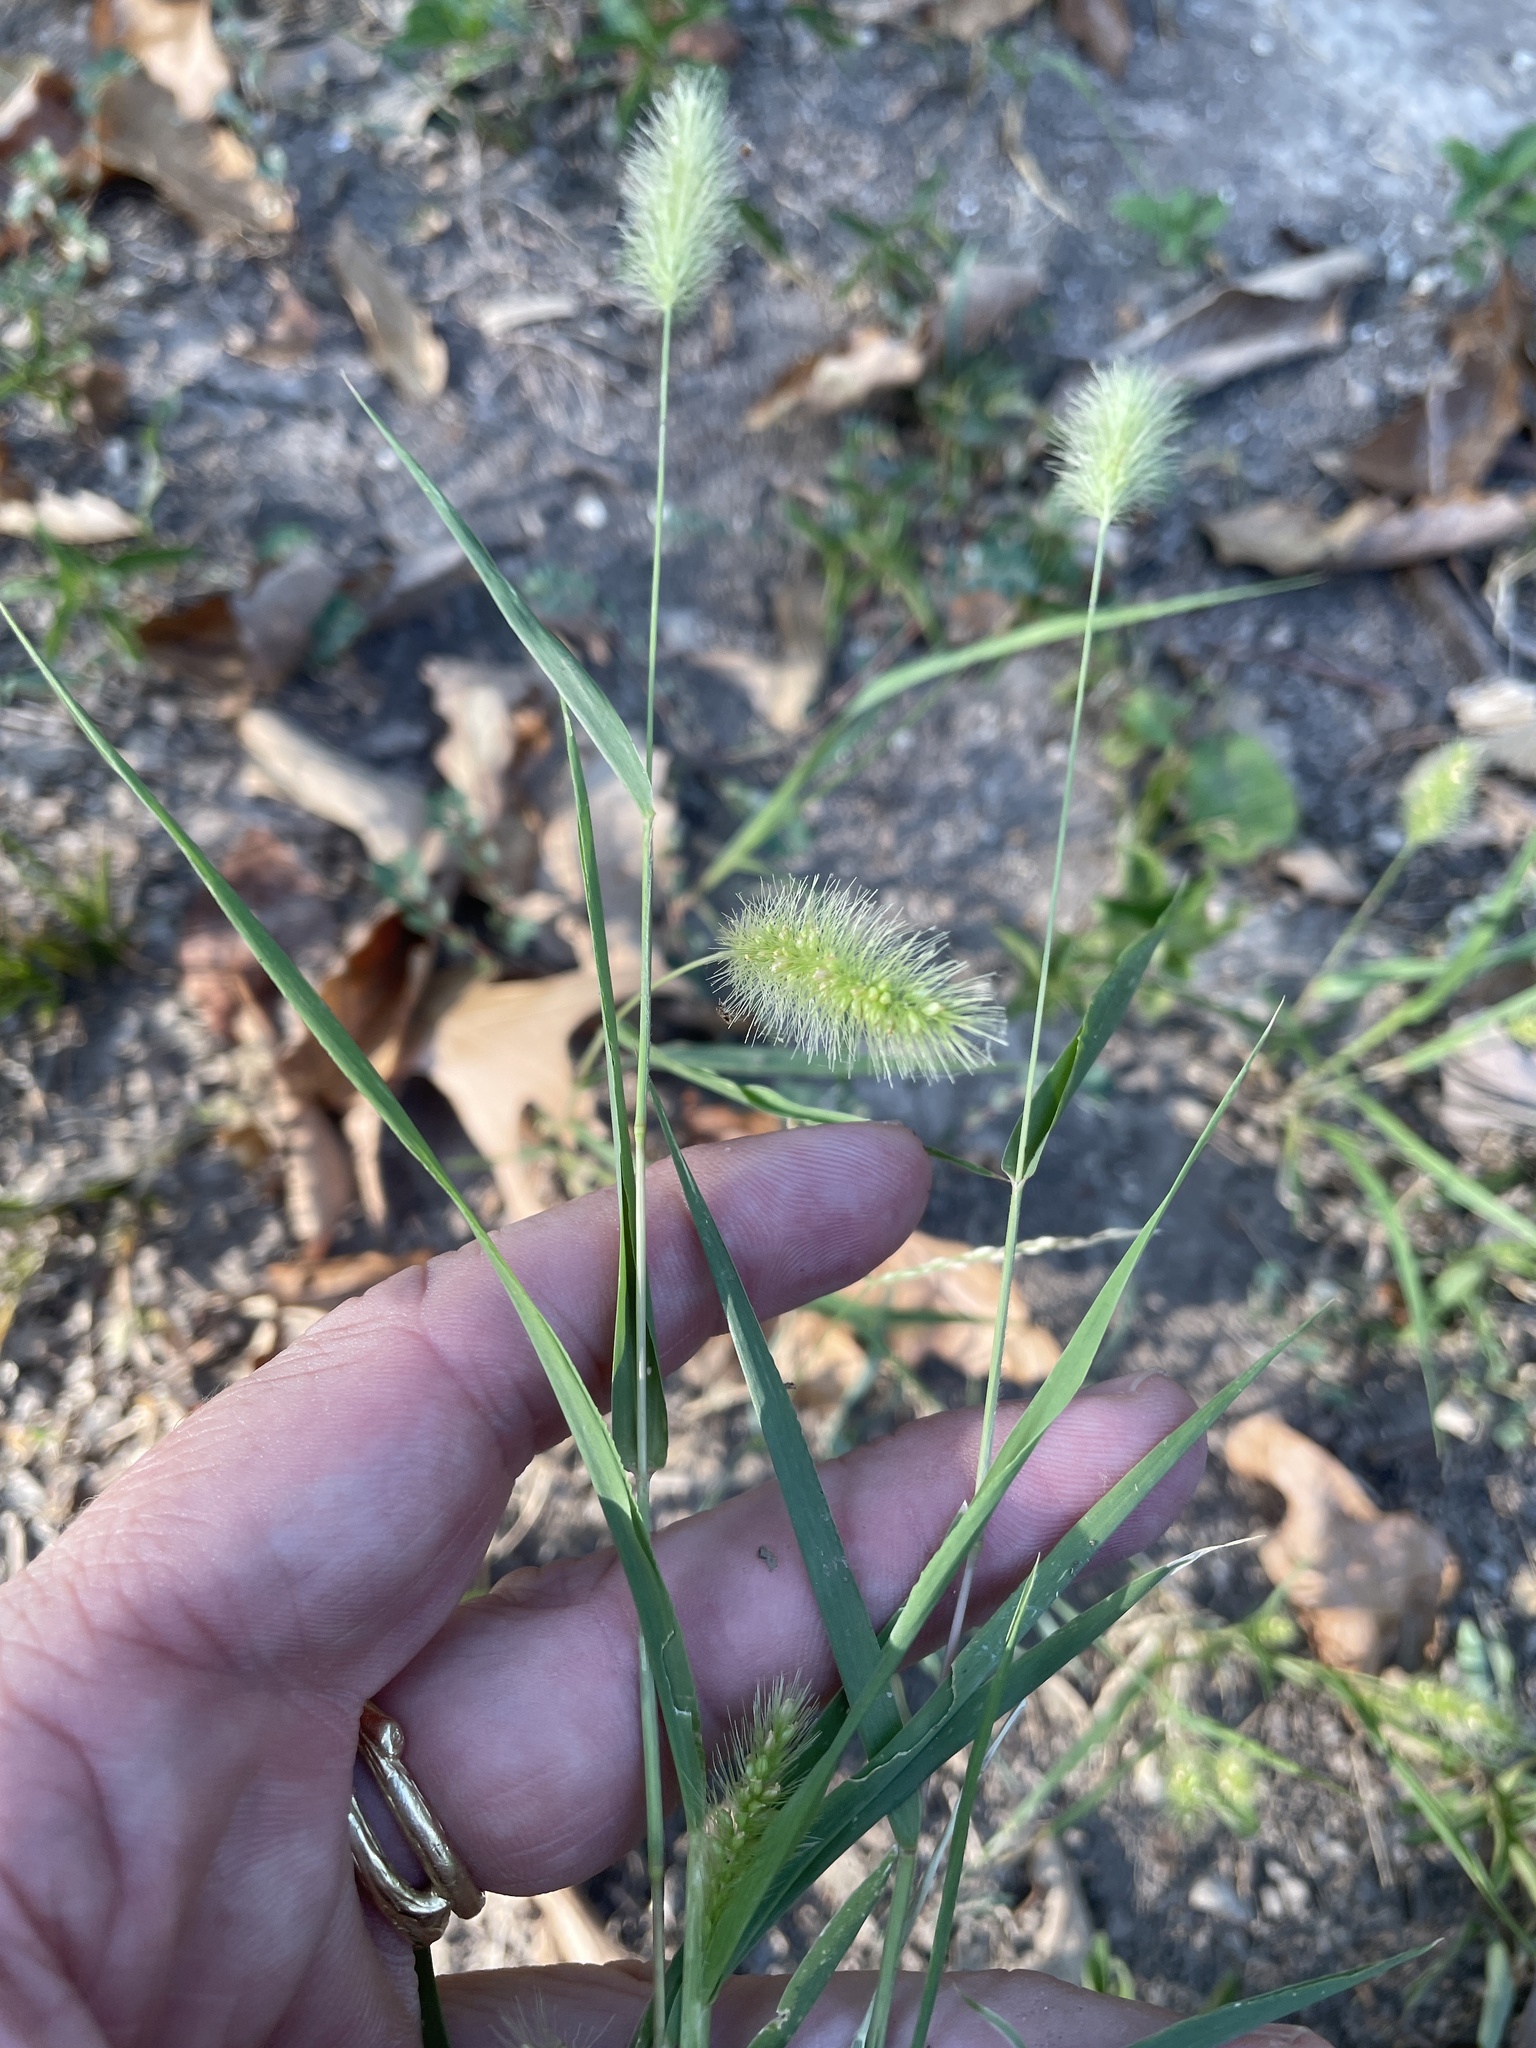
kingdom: Plantae
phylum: Tracheophyta
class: Liliopsida
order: Poales
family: Poaceae
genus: Setaria
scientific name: Setaria viridis
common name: Green bristlegrass
